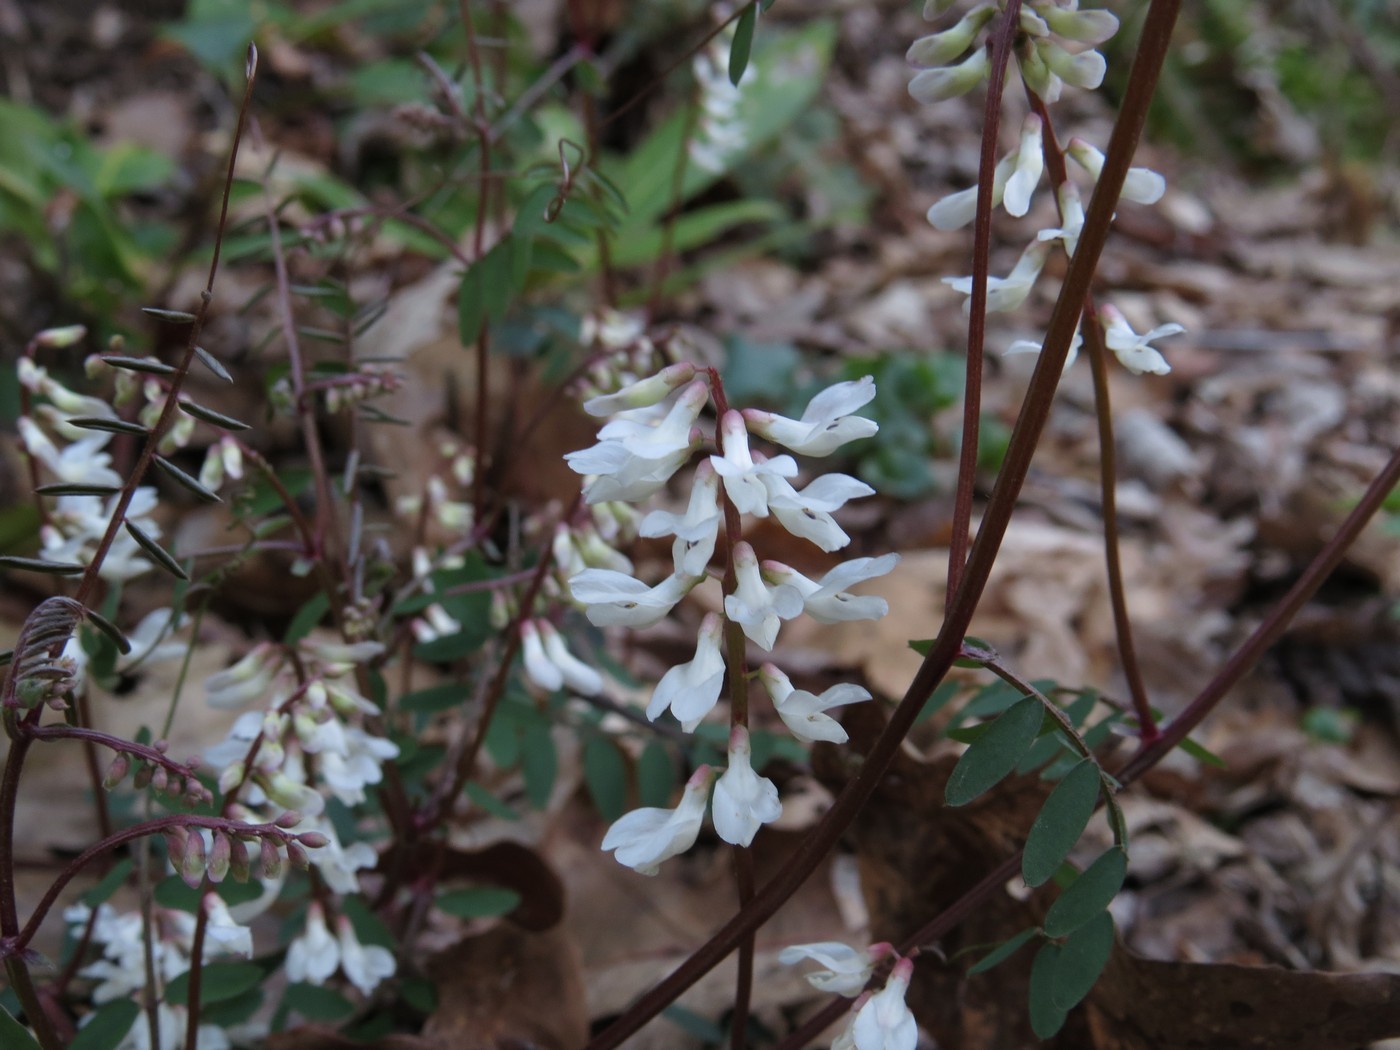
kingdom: Plantae
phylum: Tracheophyta
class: Magnoliopsida
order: Fabales
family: Fabaceae
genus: Vicia
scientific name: Vicia caroliniana
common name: Carolina vetch
